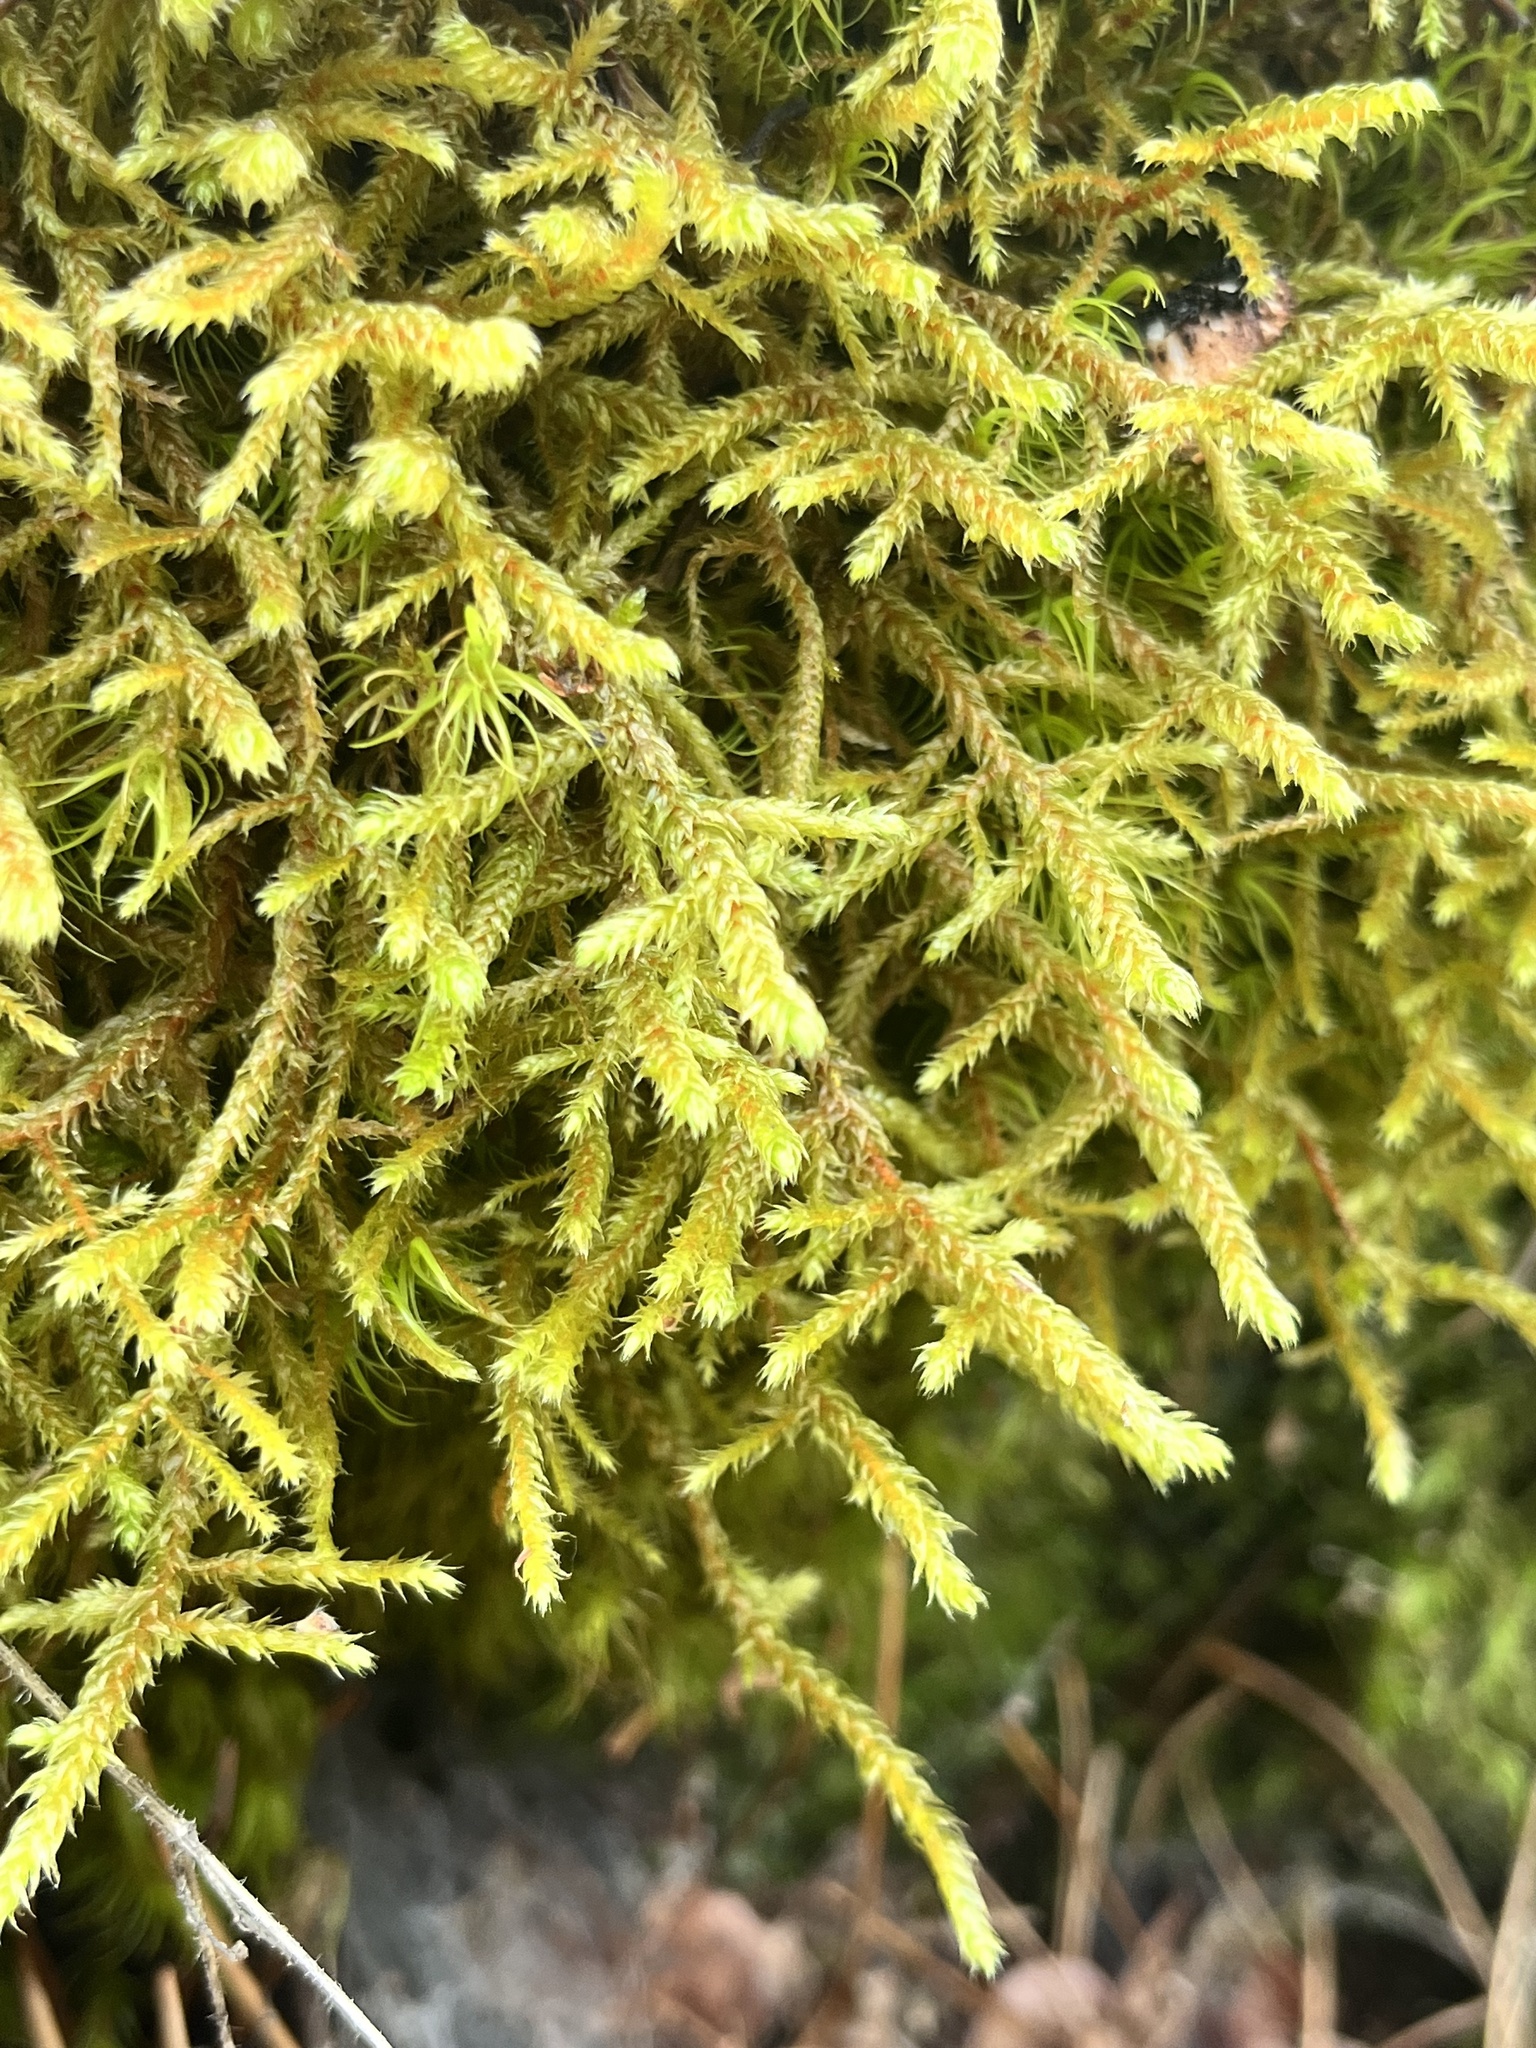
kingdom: Plantae
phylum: Bryophyta
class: Bryopsida
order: Hypnales
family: Antitrichiaceae
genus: Antitrichia
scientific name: Antitrichia curtipendula
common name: Pendulous wing-moss
